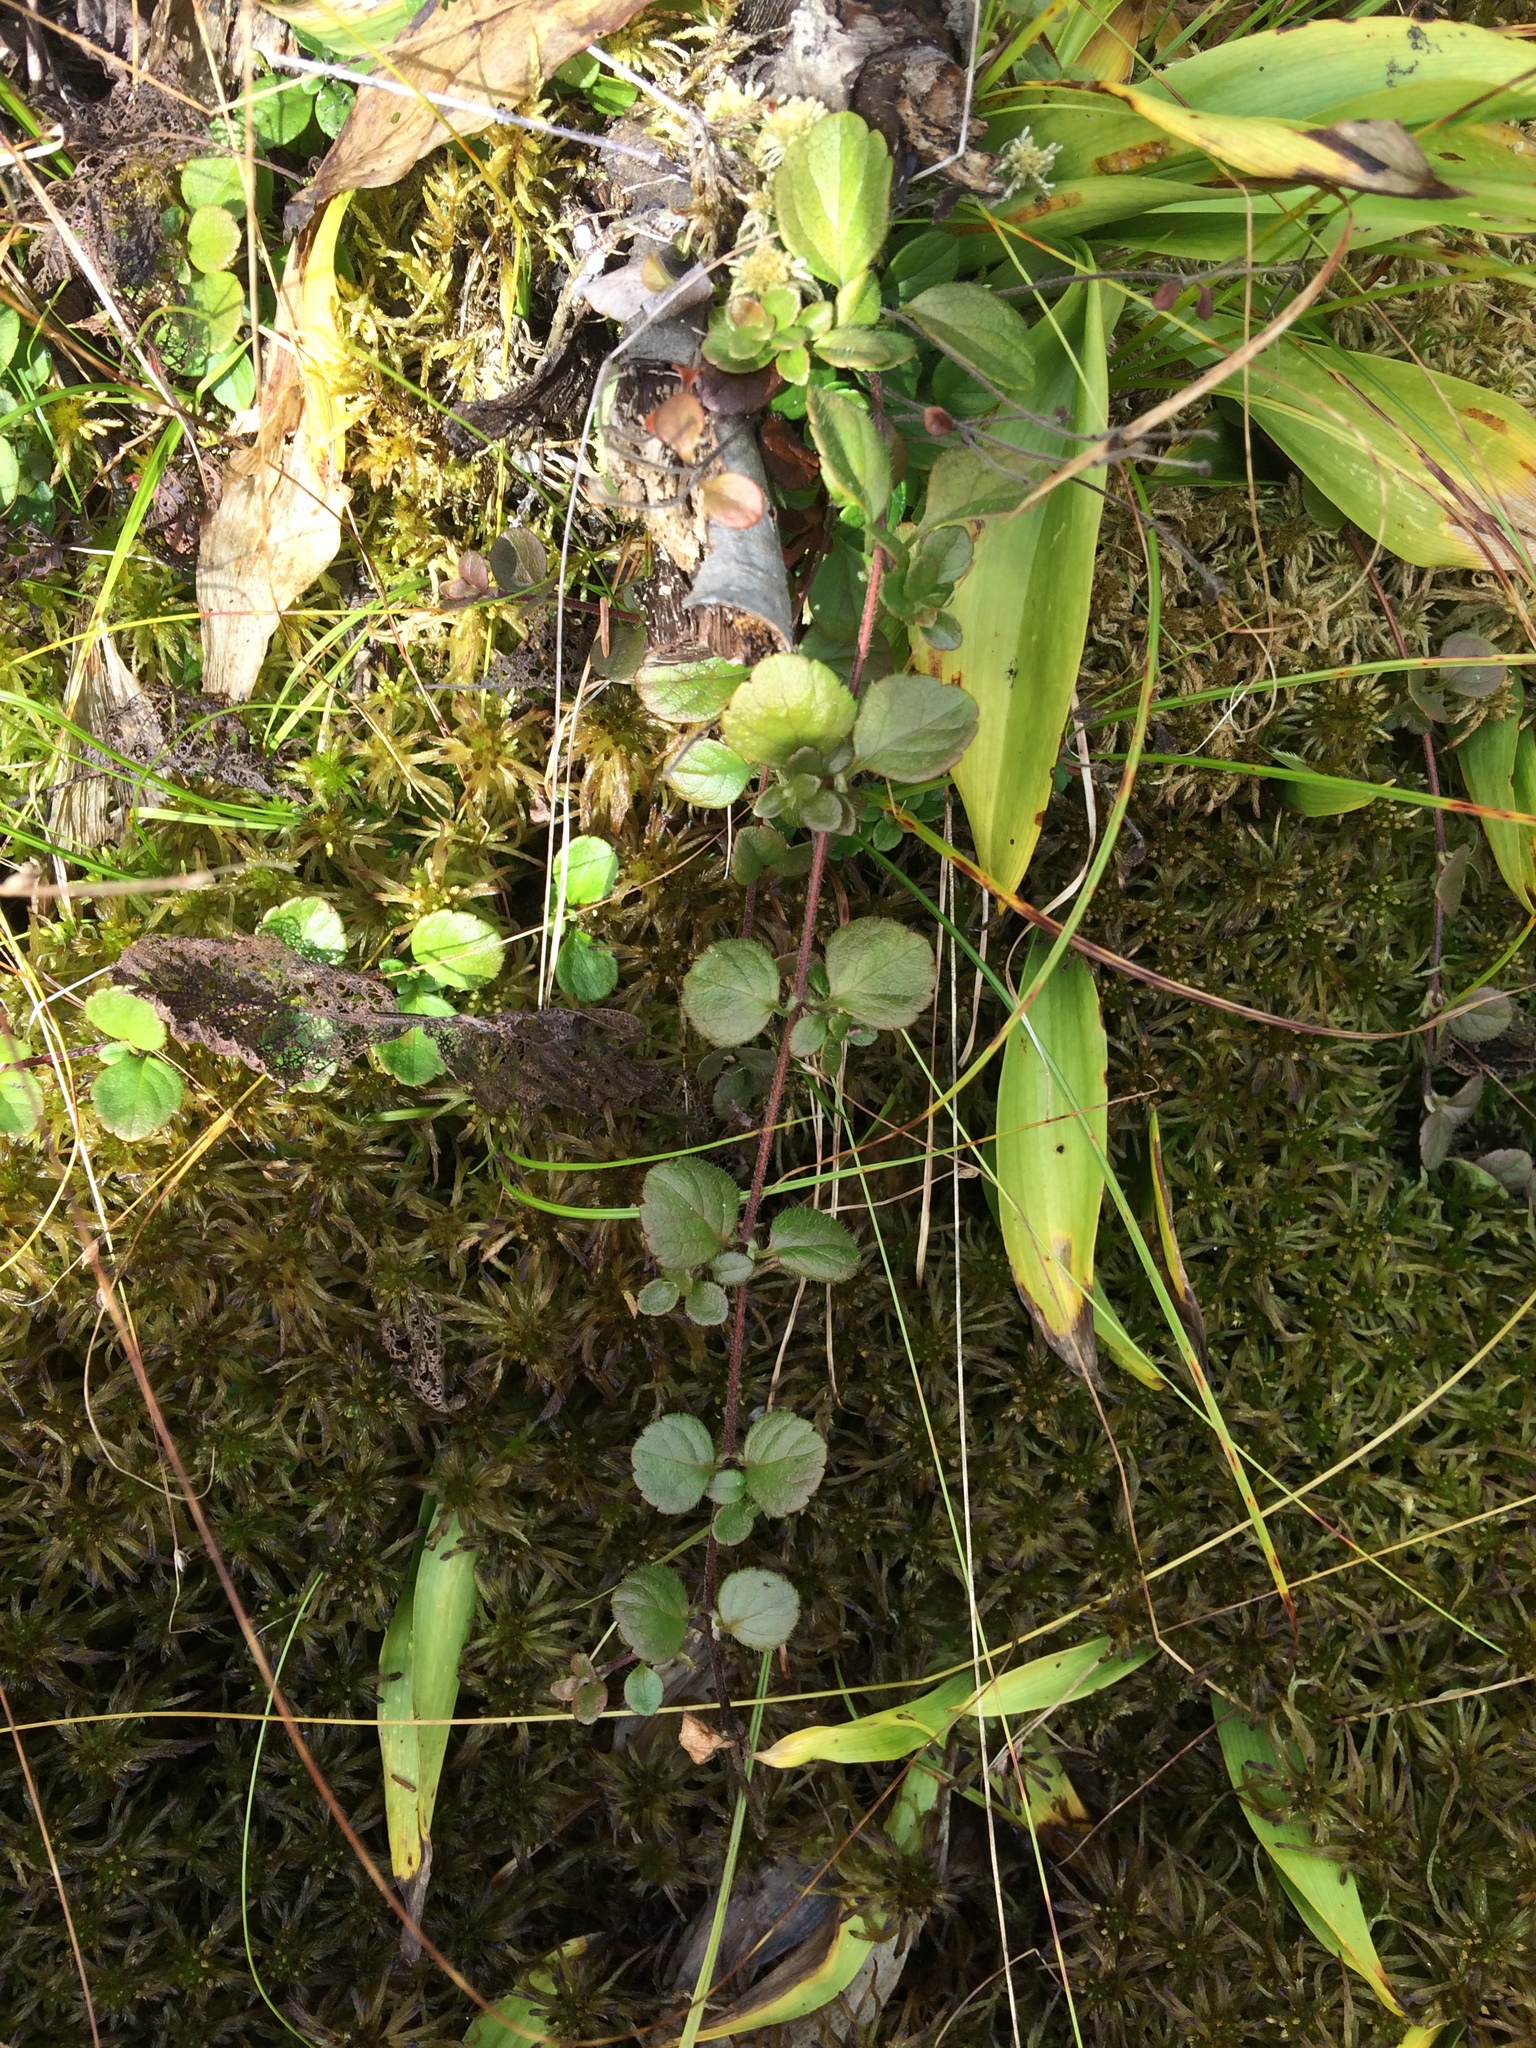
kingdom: Plantae
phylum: Tracheophyta
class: Magnoliopsida
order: Dipsacales
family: Caprifoliaceae
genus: Linnaea
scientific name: Linnaea borealis
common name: Twinflower
